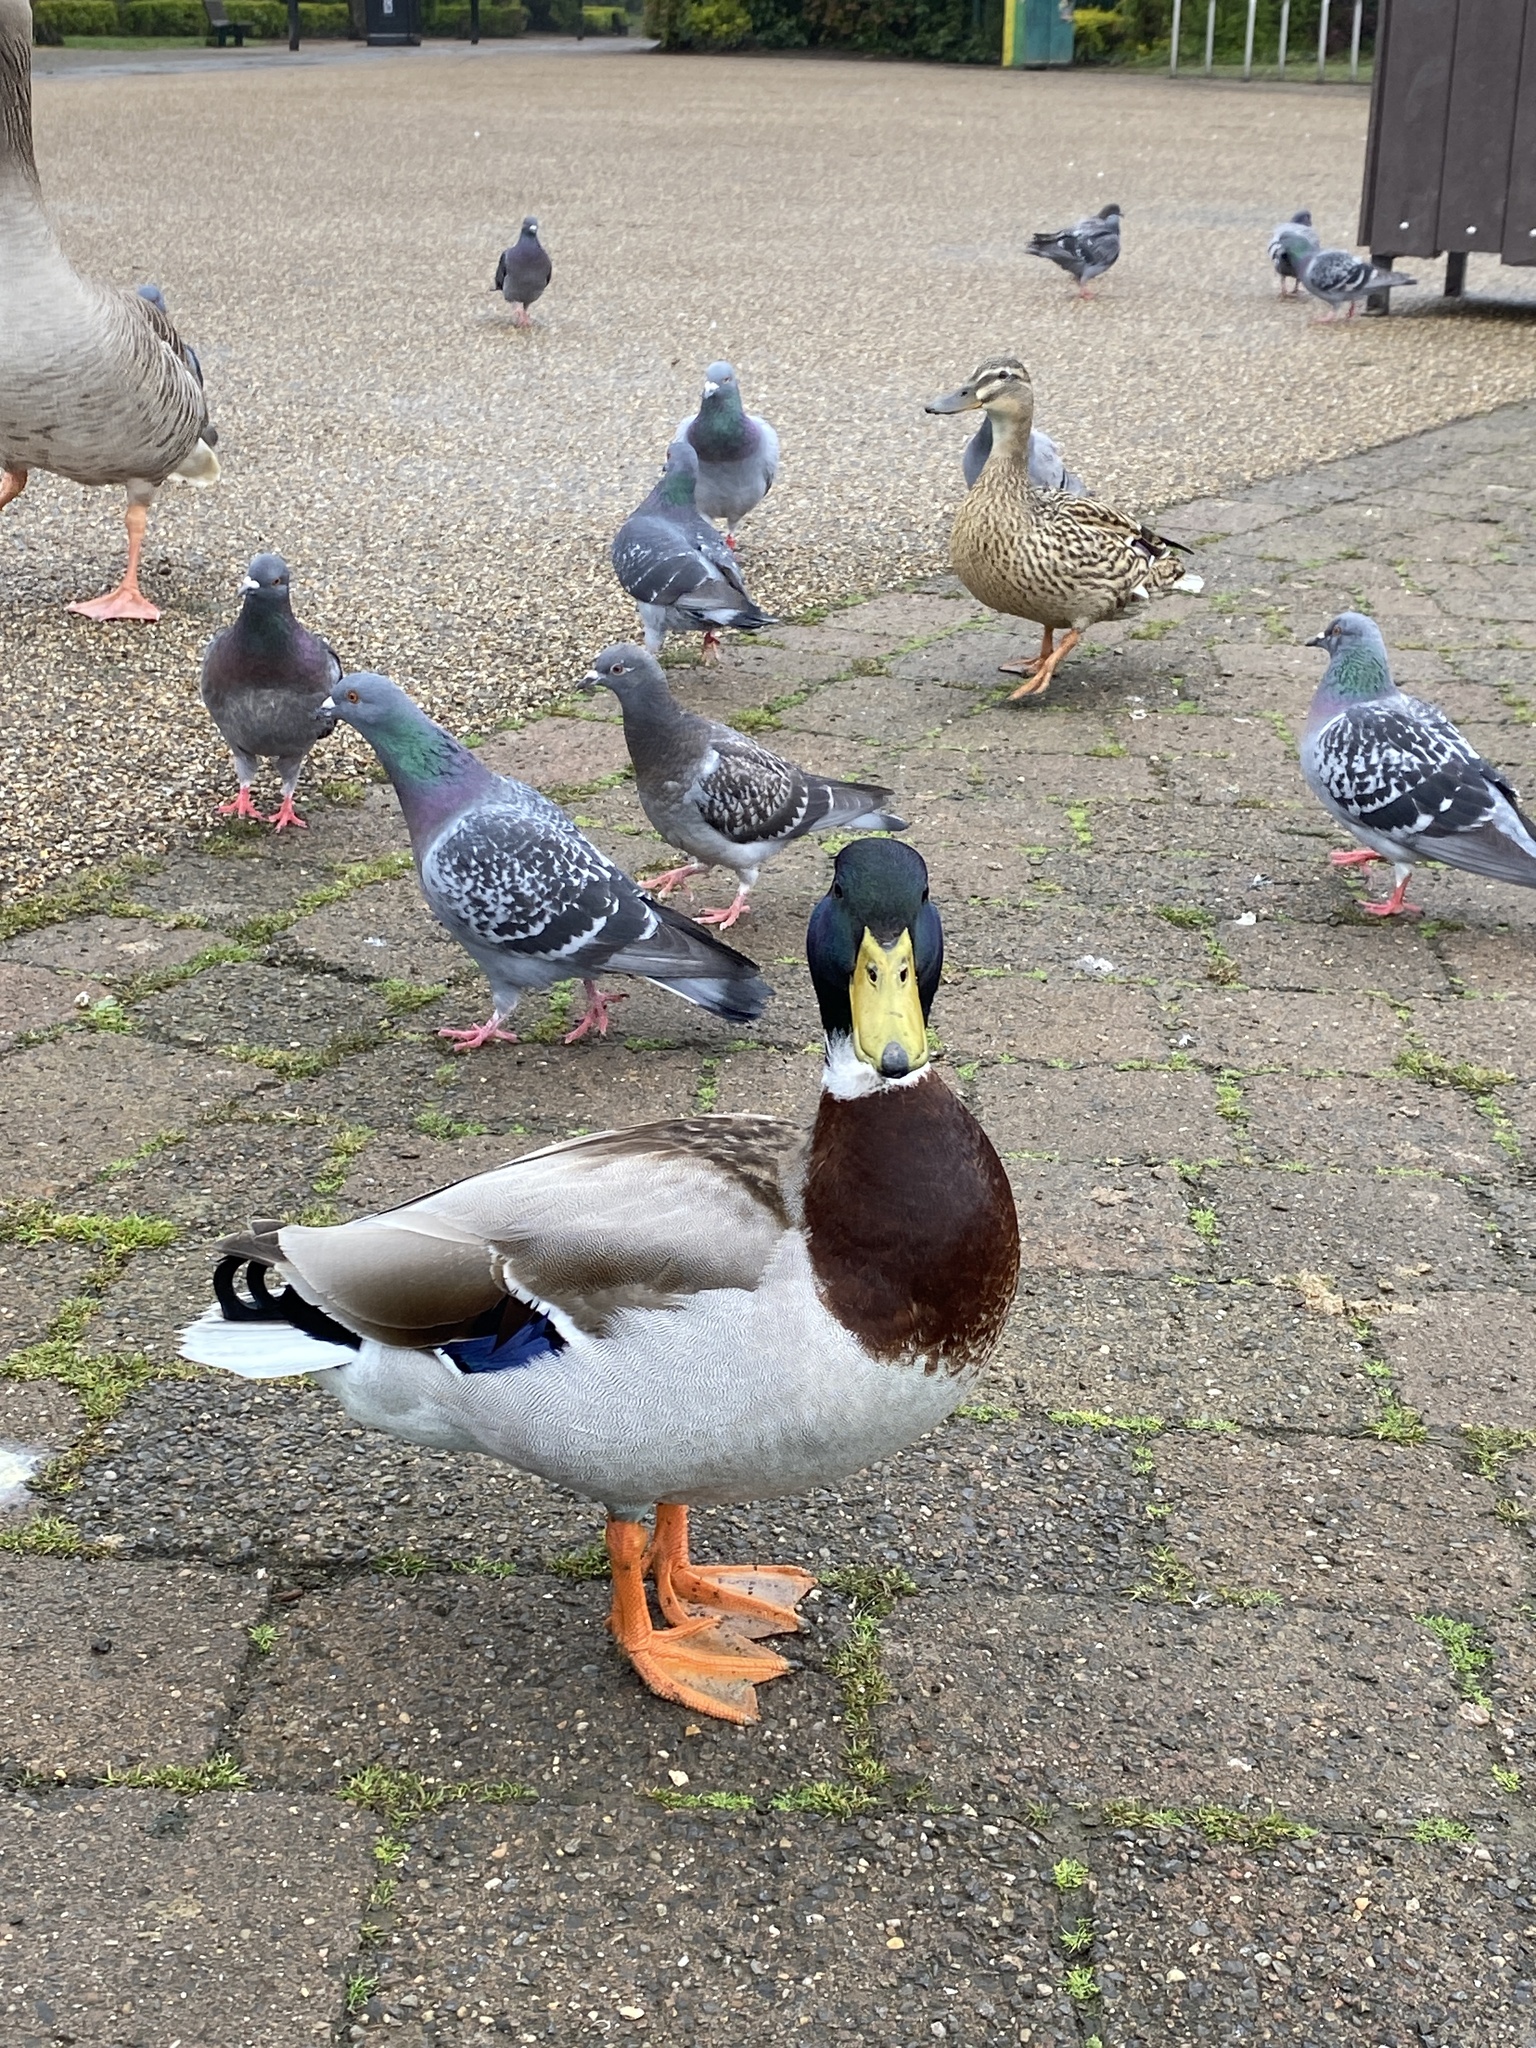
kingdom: Animalia
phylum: Chordata
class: Aves
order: Anseriformes
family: Anatidae
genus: Anas
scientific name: Anas platyrhynchos
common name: Mallard
